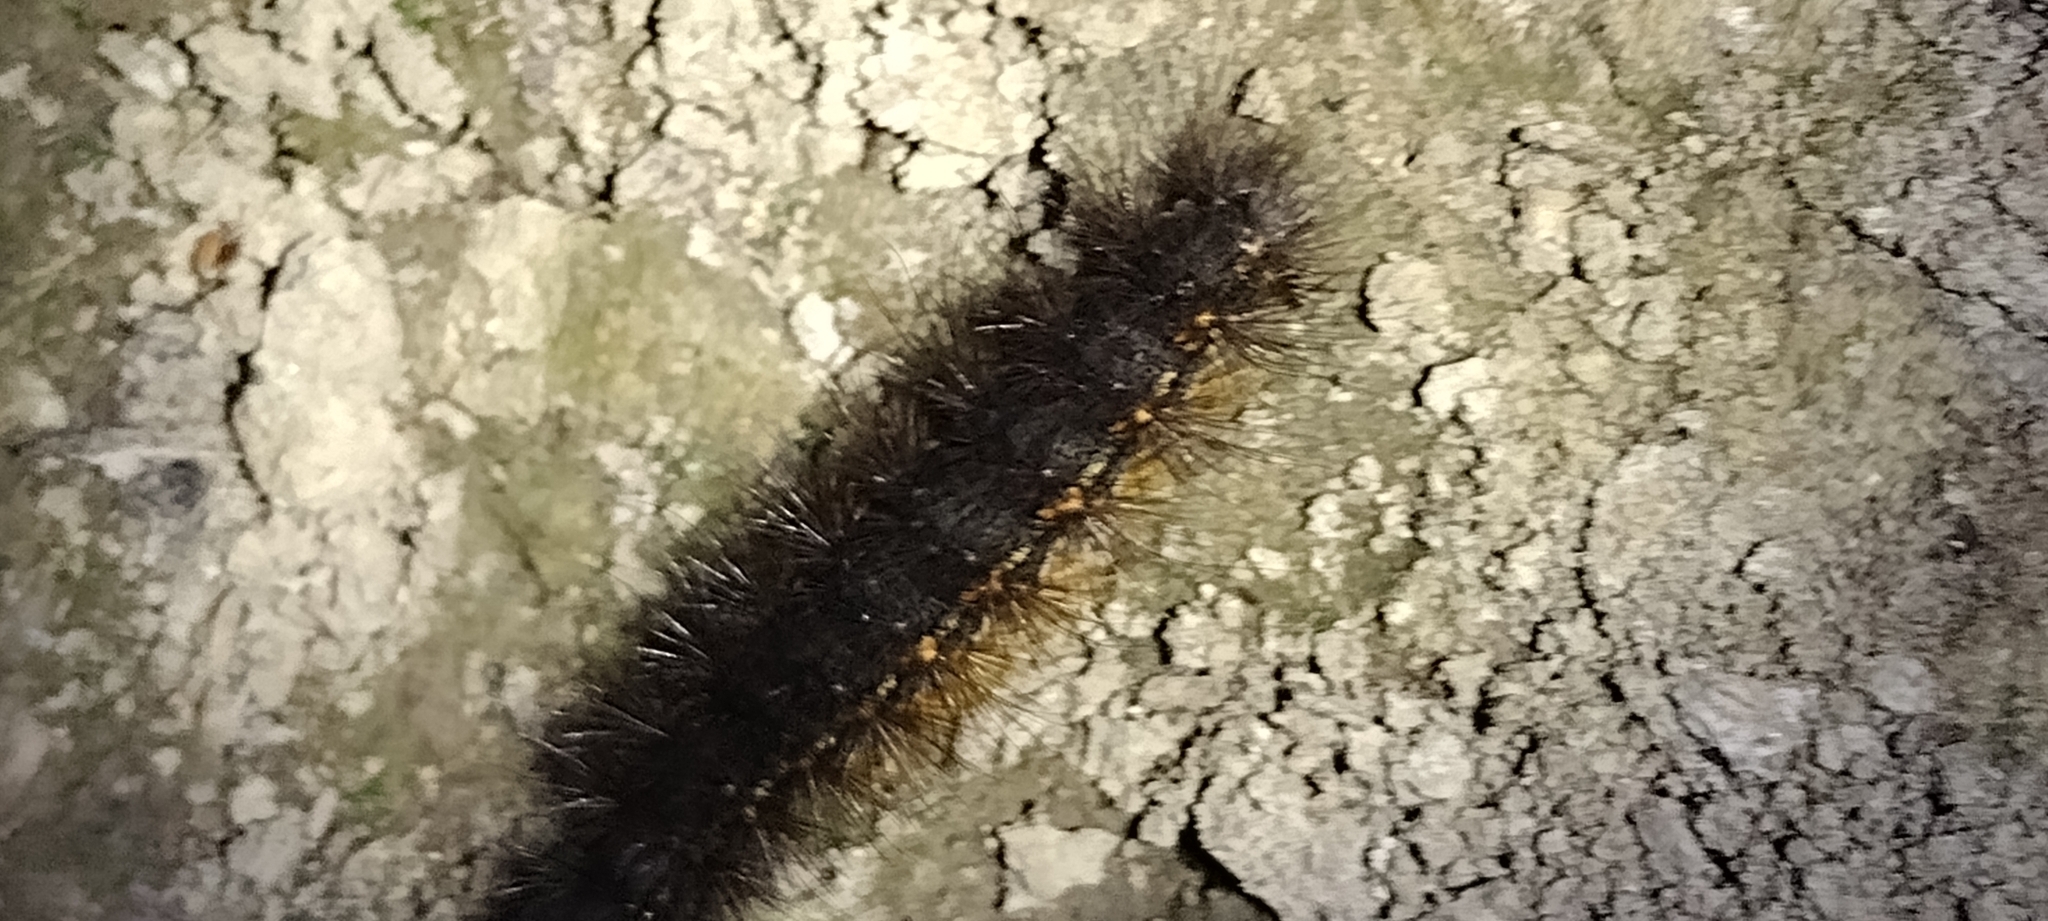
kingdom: Animalia
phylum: Arthropoda
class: Insecta
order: Lepidoptera
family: Erebidae
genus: Estigmene
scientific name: Estigmene acrea
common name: Salt marsh moth
